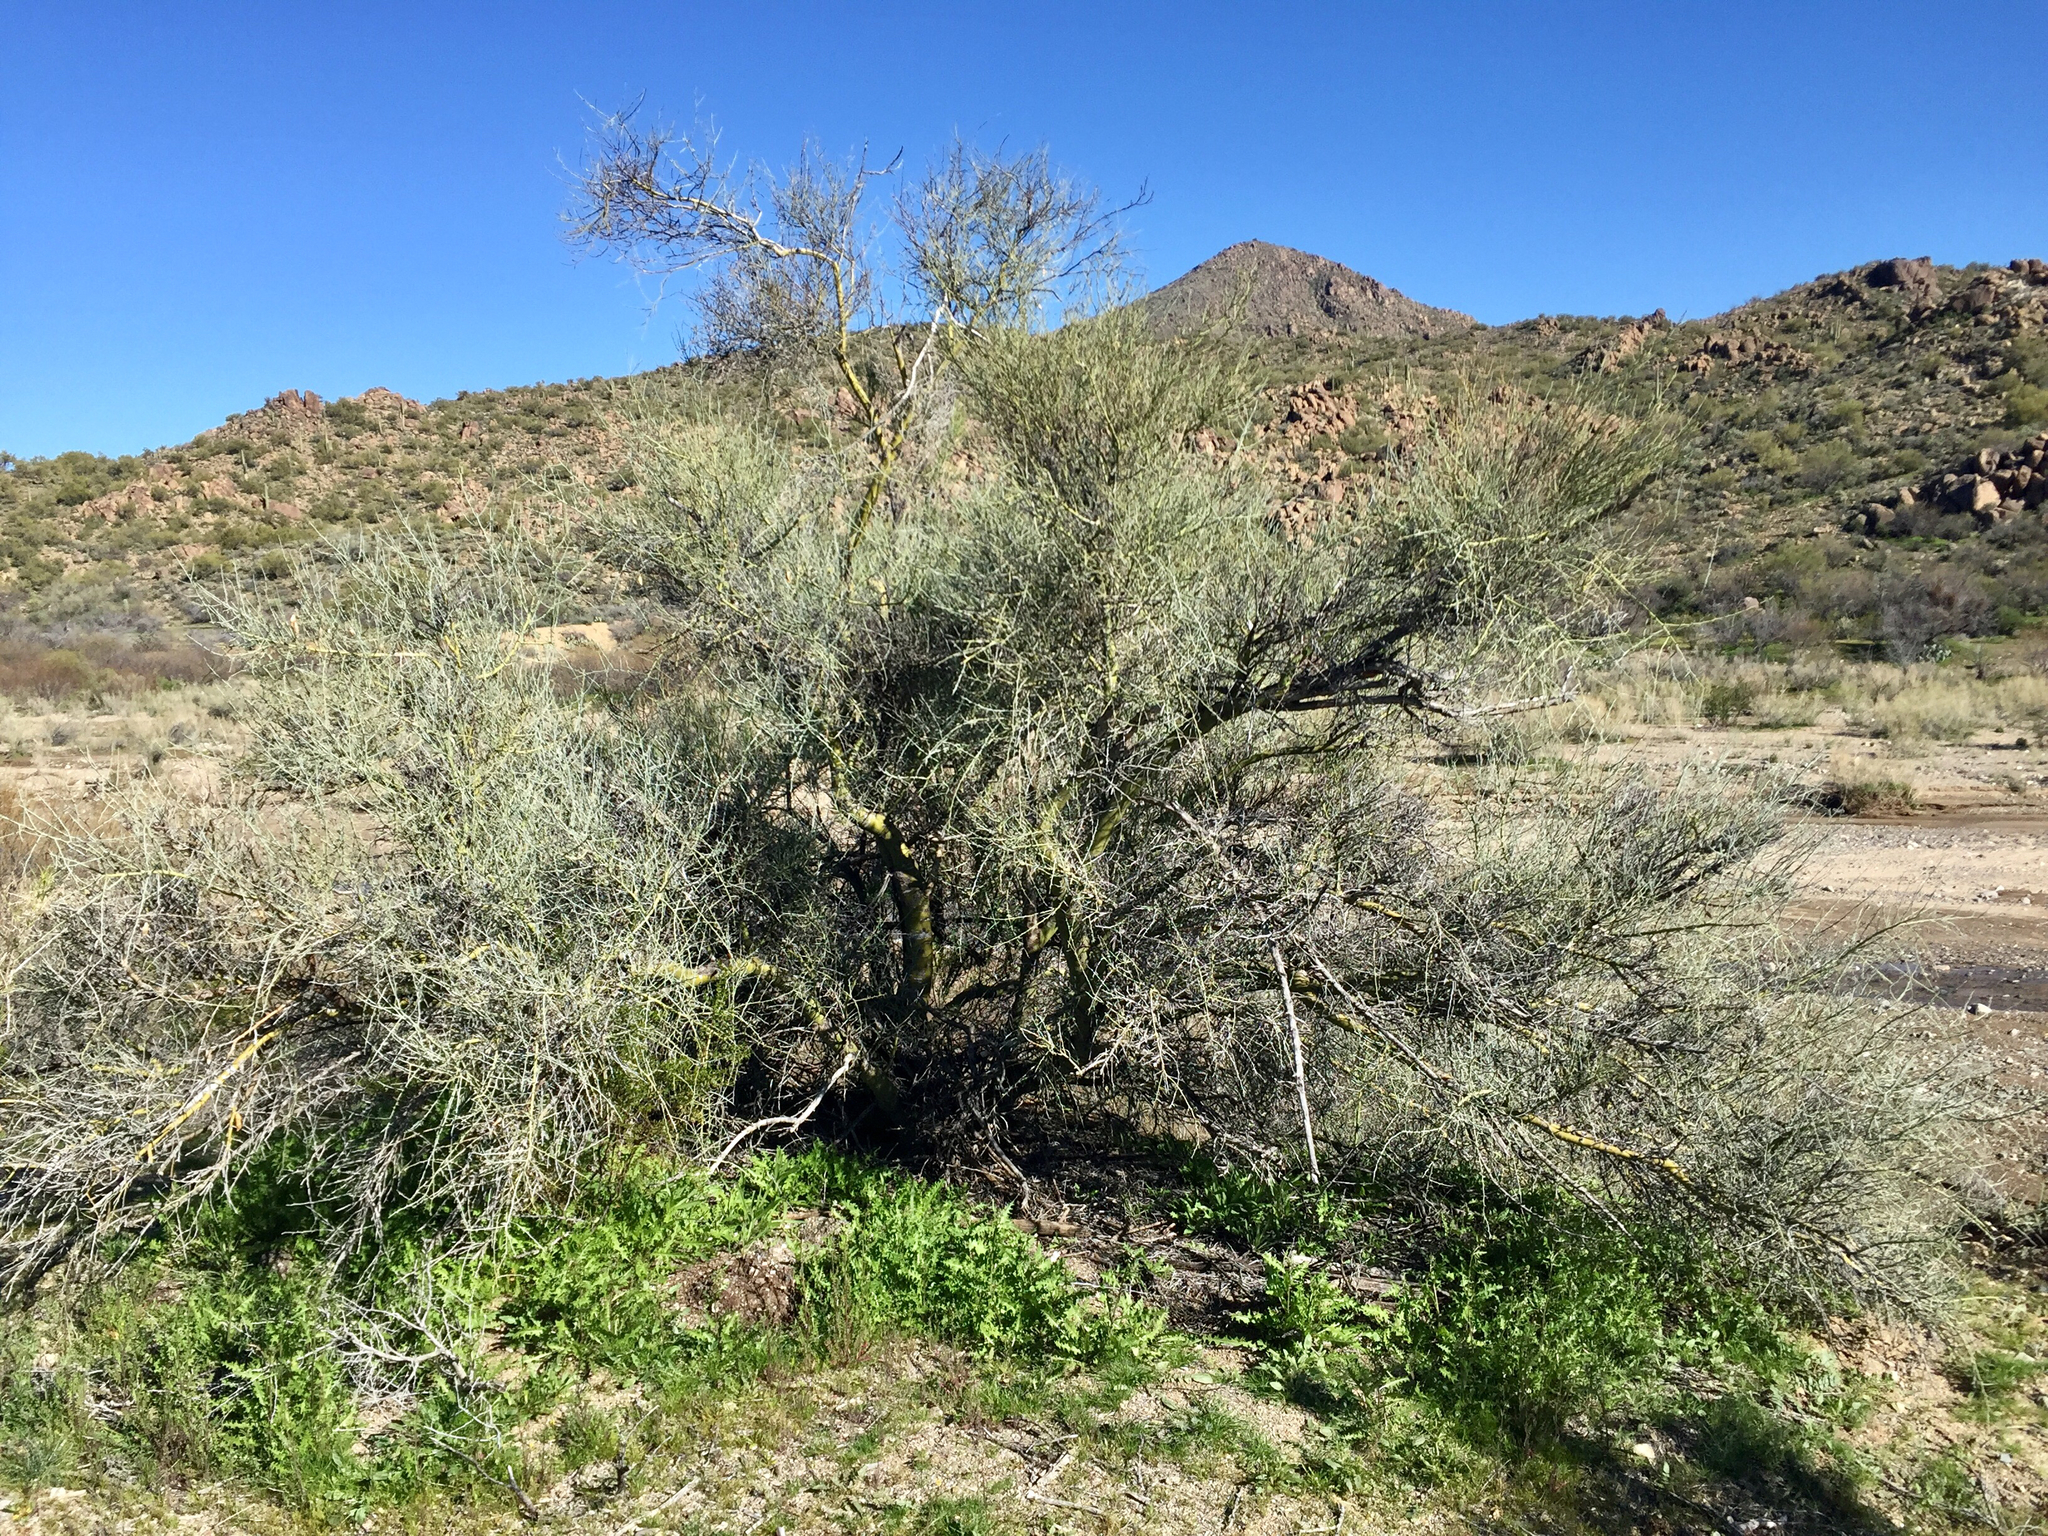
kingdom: Plantae
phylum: Tracheophyta
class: Magnoliopsida
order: Fabales
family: Fabaceae
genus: Parkinsonia
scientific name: Parkinsonia florida
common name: Blue paloverde
